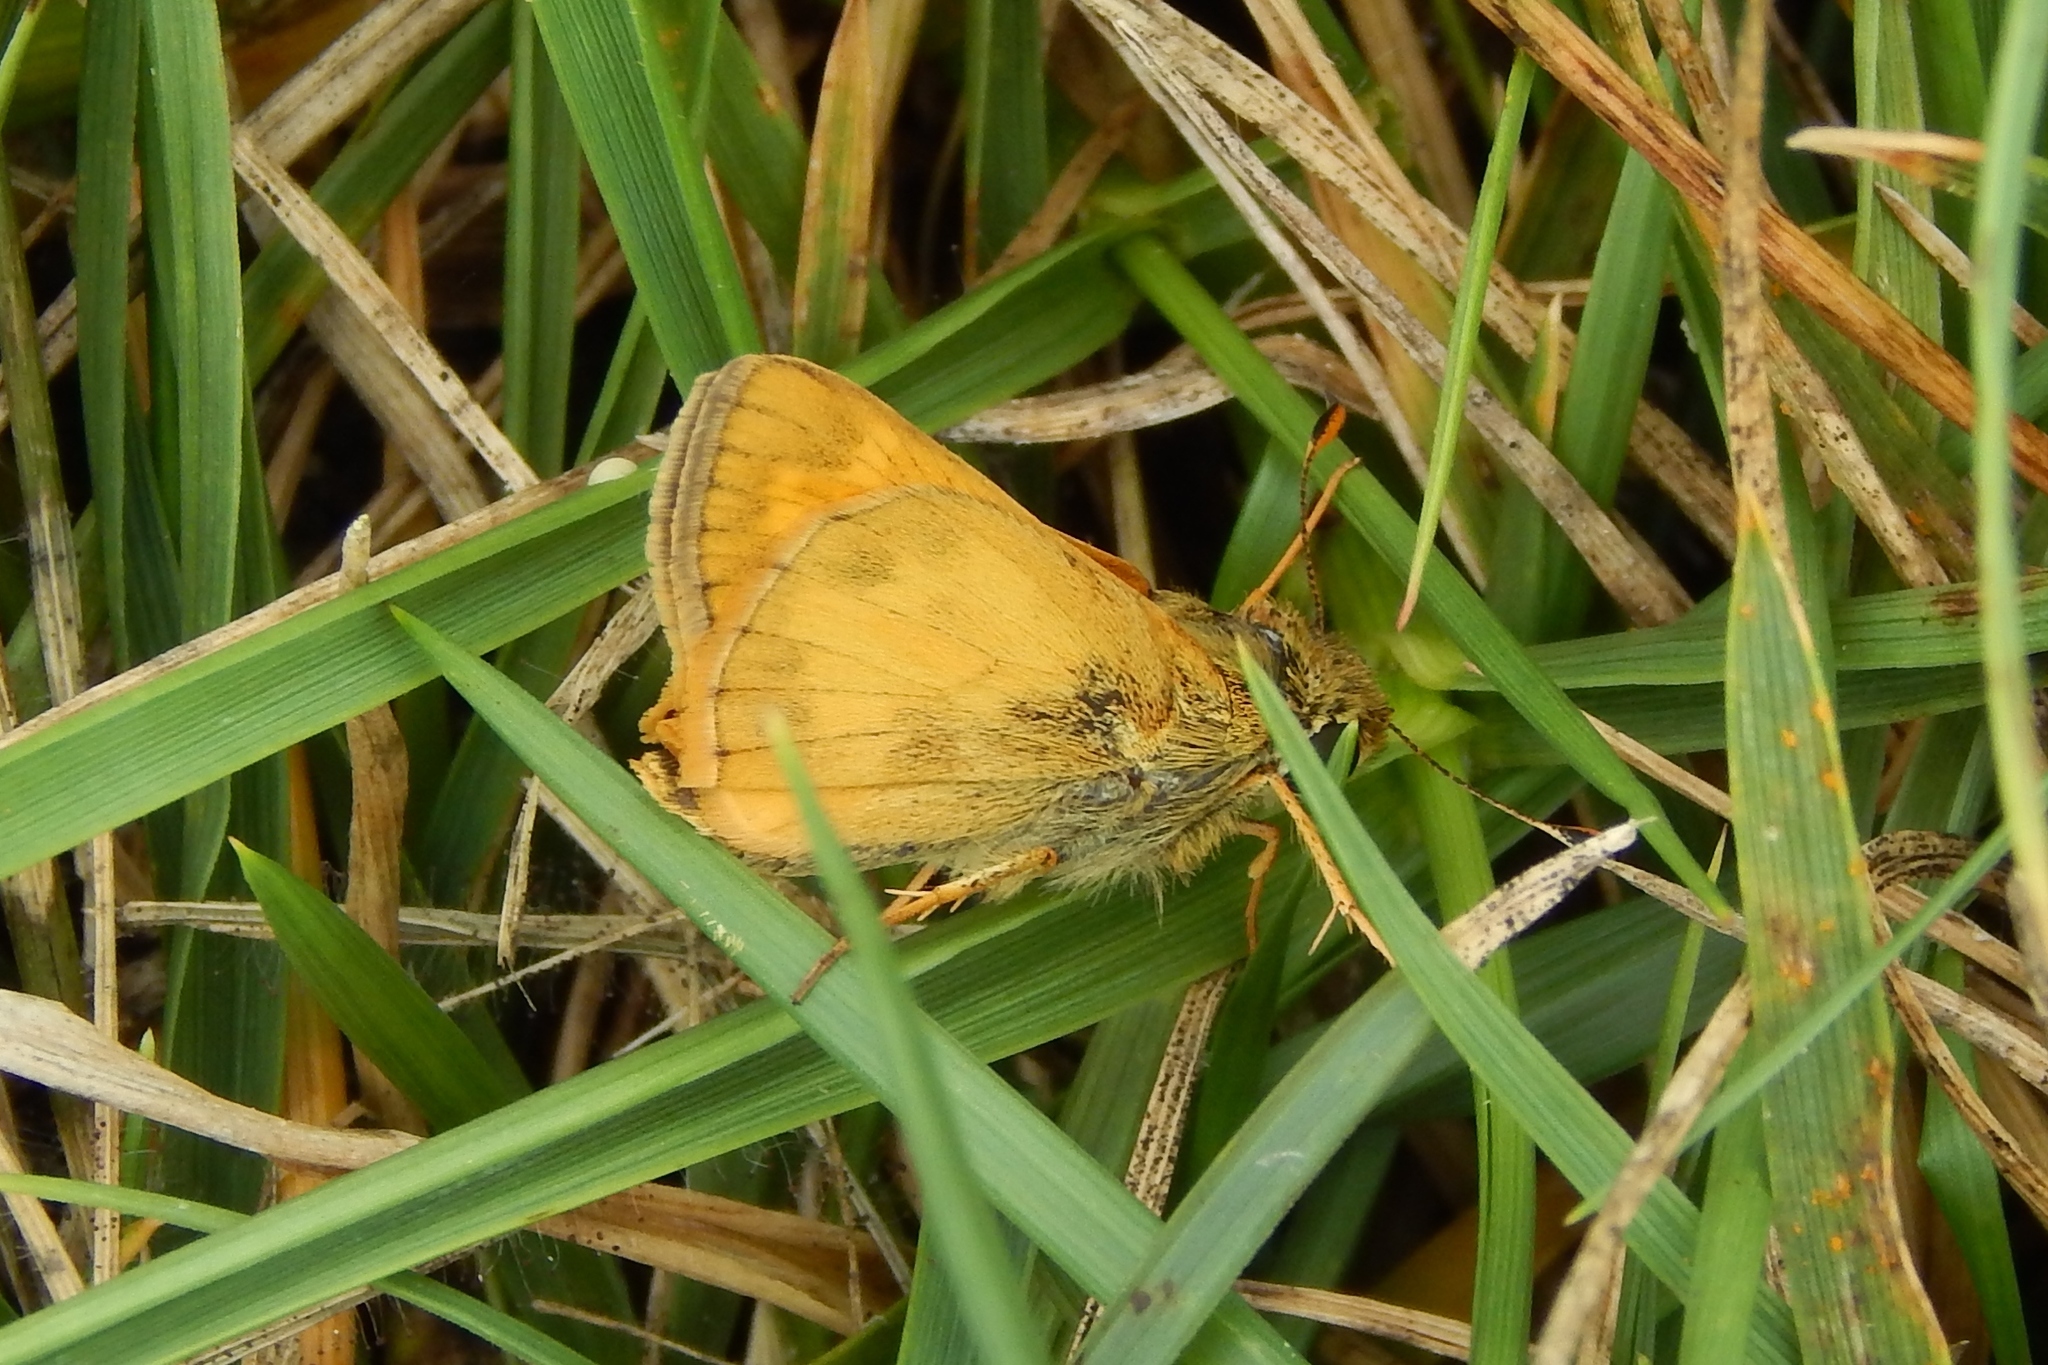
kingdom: Animalia
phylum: Arthropoda
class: Insecta
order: Lepidoptera
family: Hesperiidae
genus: Atalopedes
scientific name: Atalopedes
